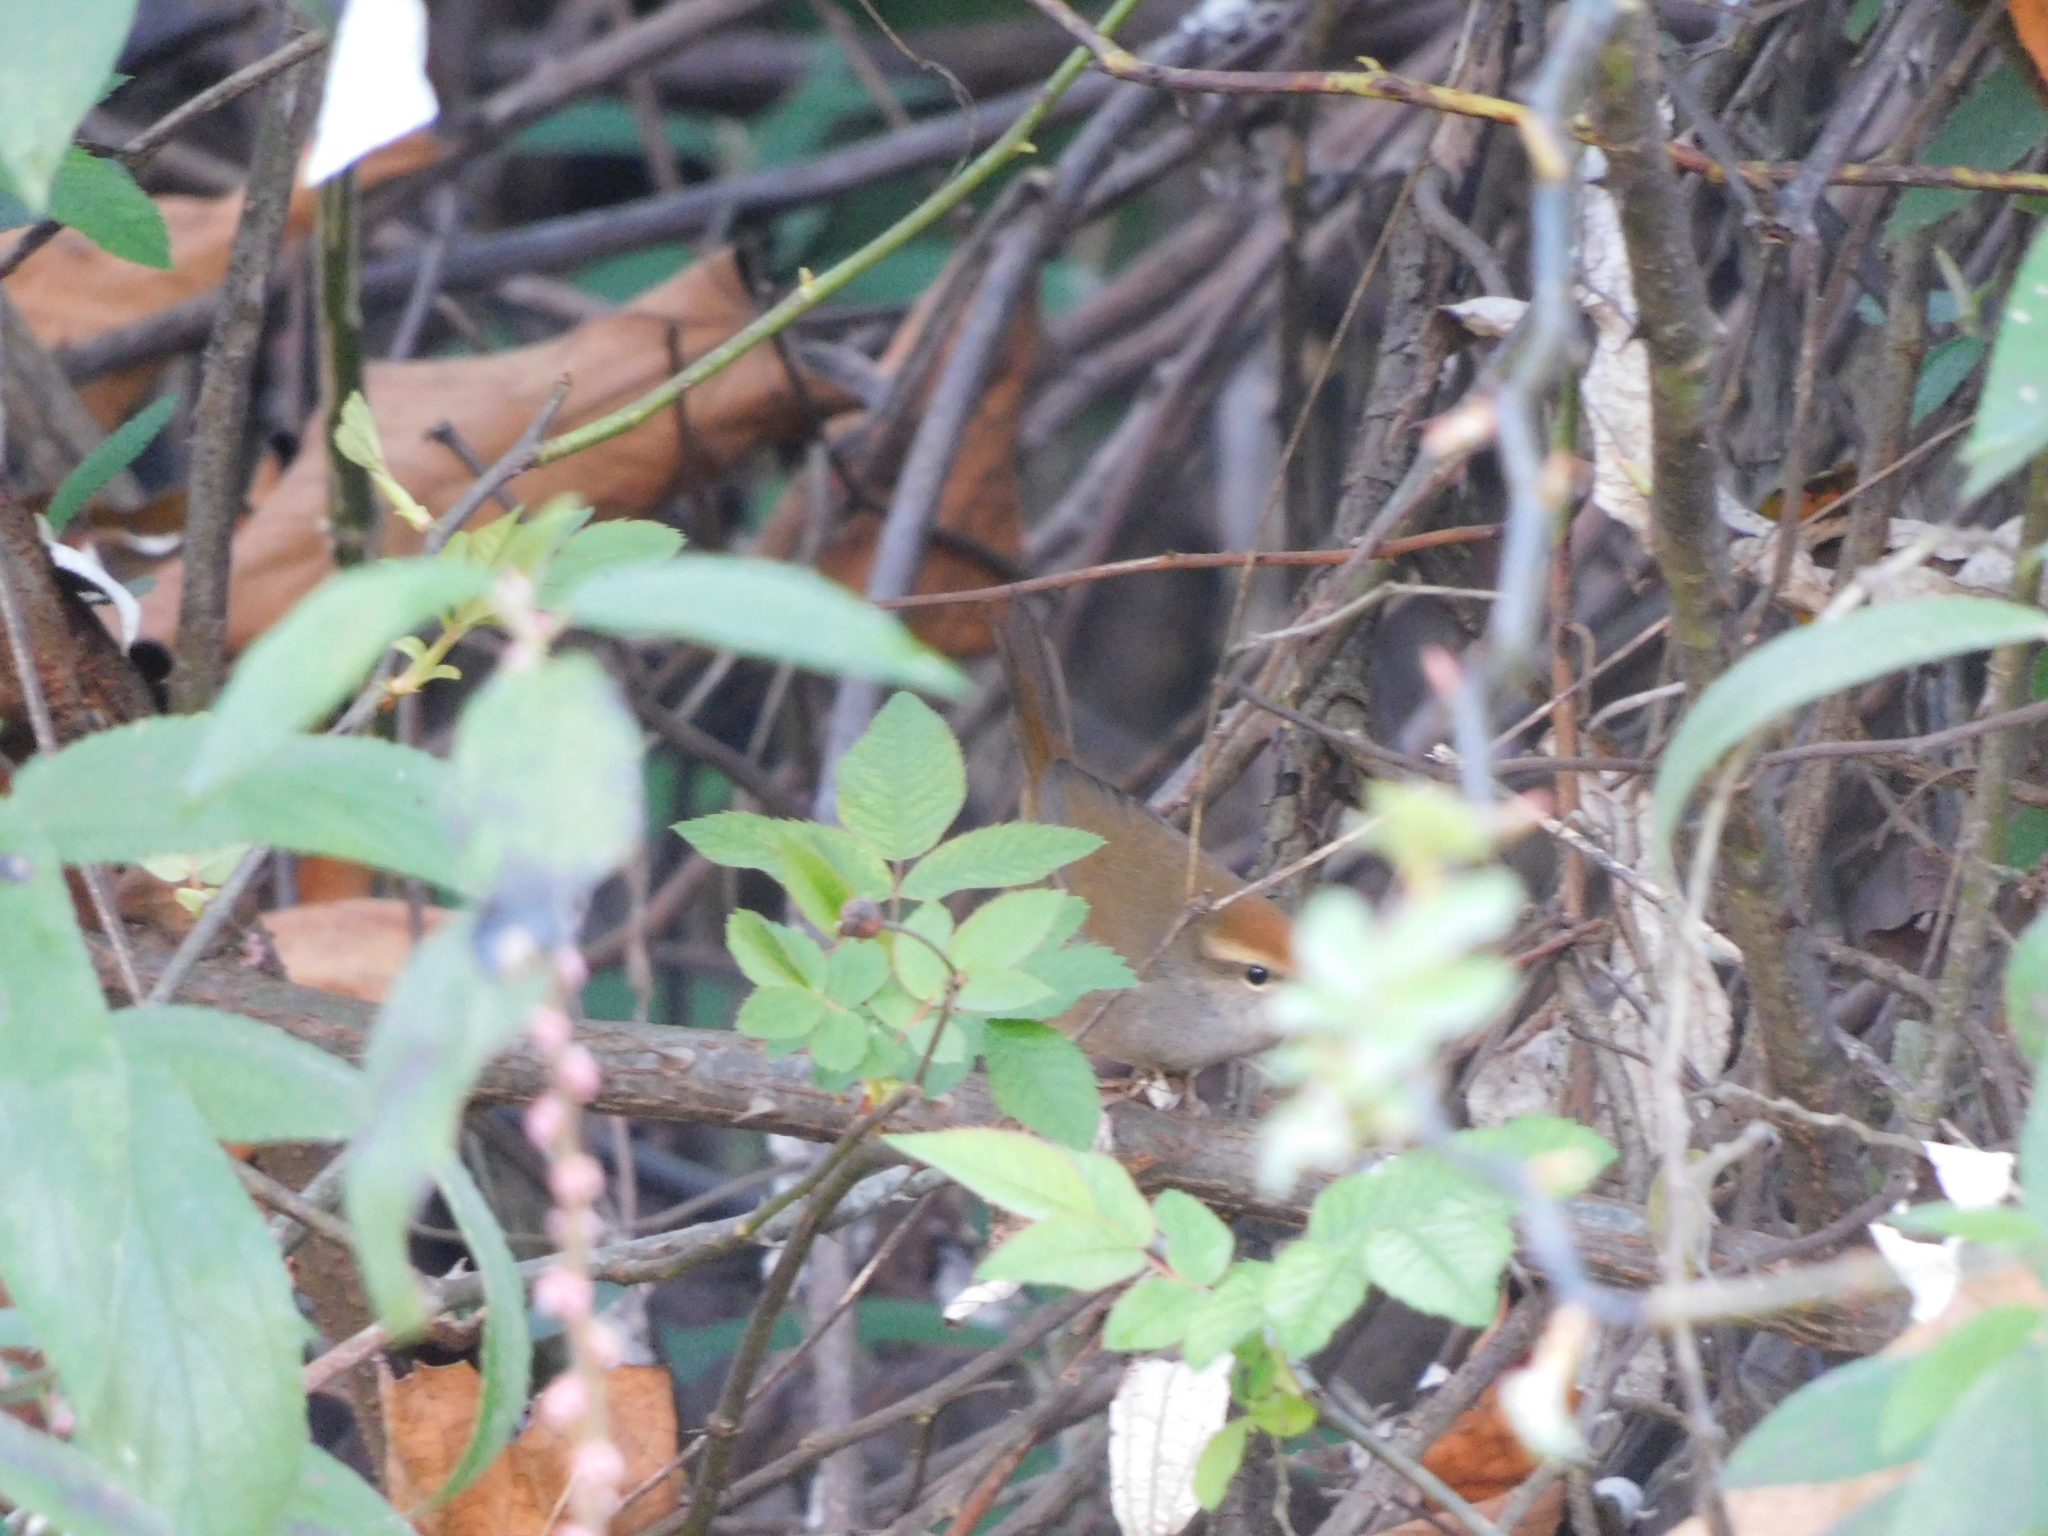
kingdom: Animalia
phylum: Chordata
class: Aves
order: Passeriformes
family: Cettiidae
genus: Cettia
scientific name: Cettia brunnifrons
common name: Grey-sided bush warbler
